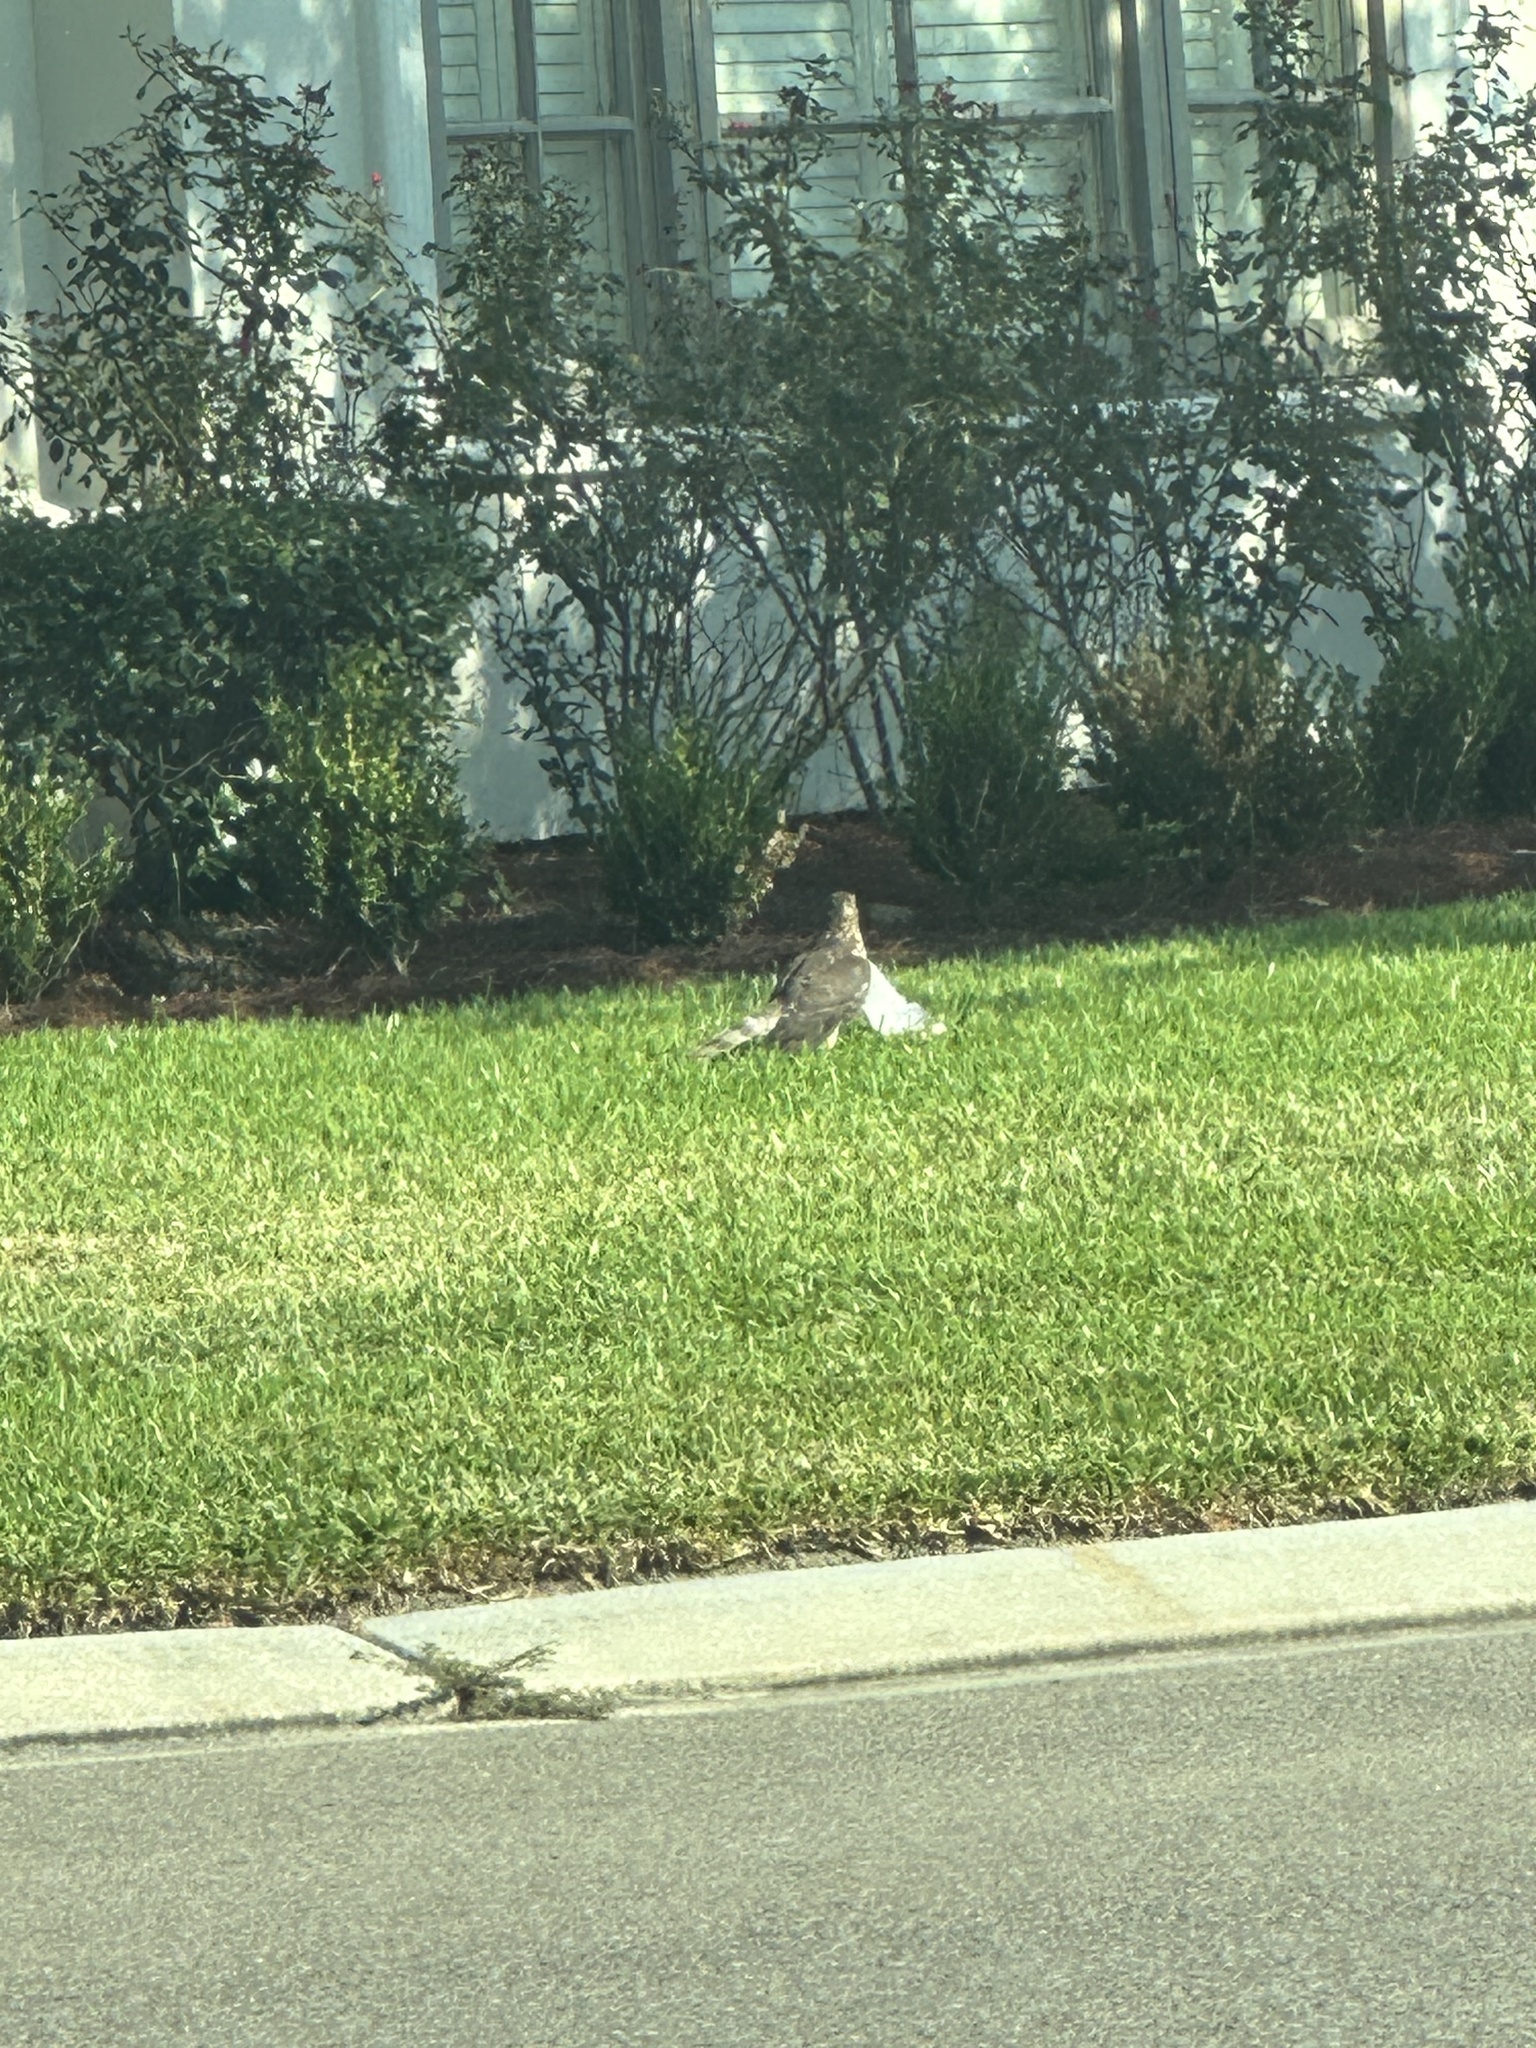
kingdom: Animalia
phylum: Chordata
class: Aves
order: Accipitriformes
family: Accipitridae
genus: Accipiter
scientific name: Accipiter cooperii
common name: Cooper's hawk
